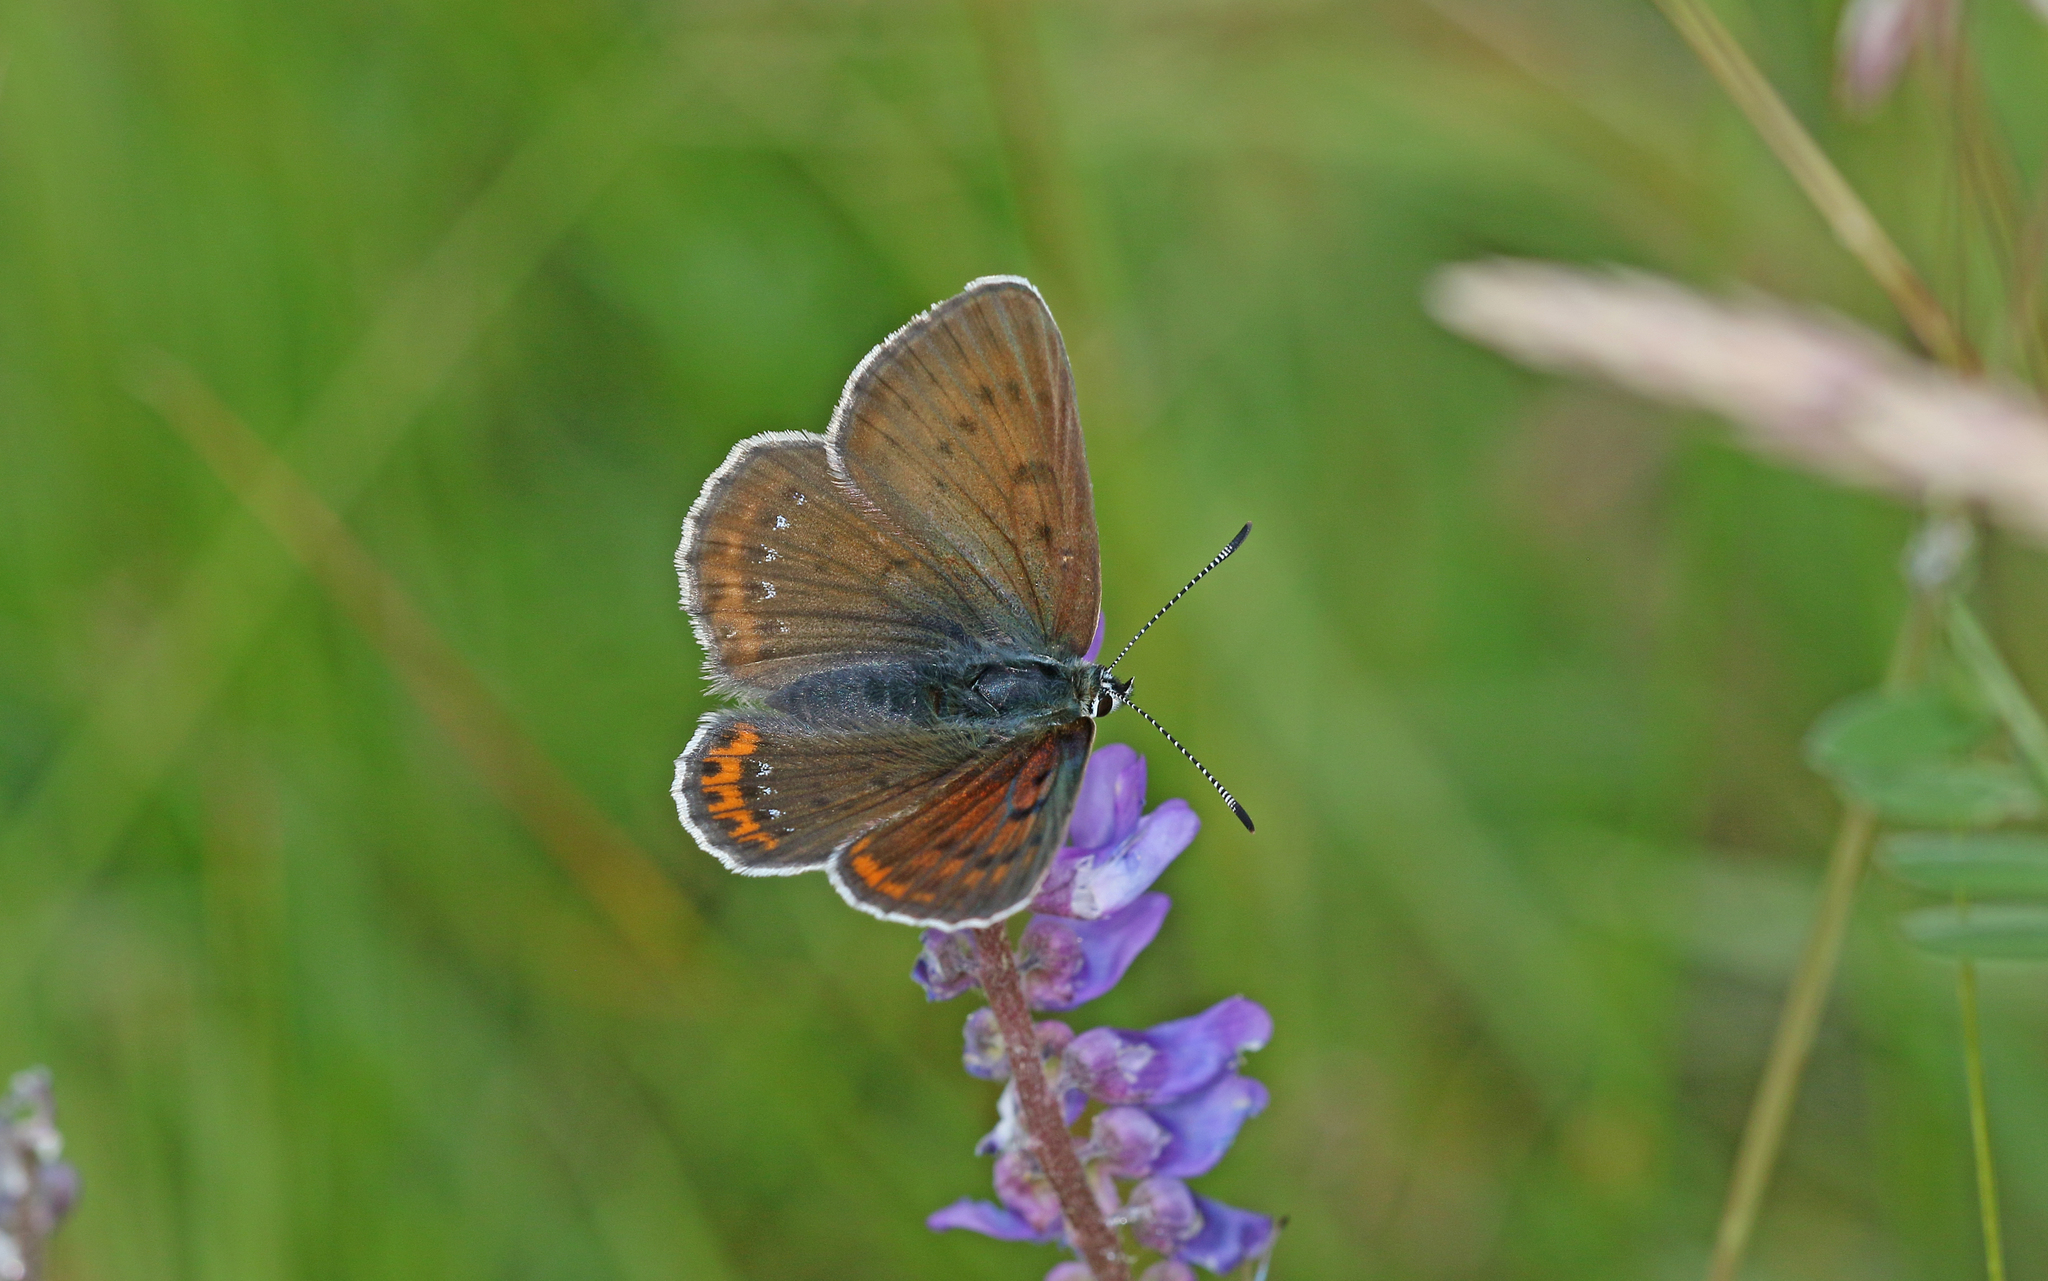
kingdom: Animalia
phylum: Arthropoda
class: Insecta
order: Lepidoptera
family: Lycaenidae
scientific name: Lycaenidae
